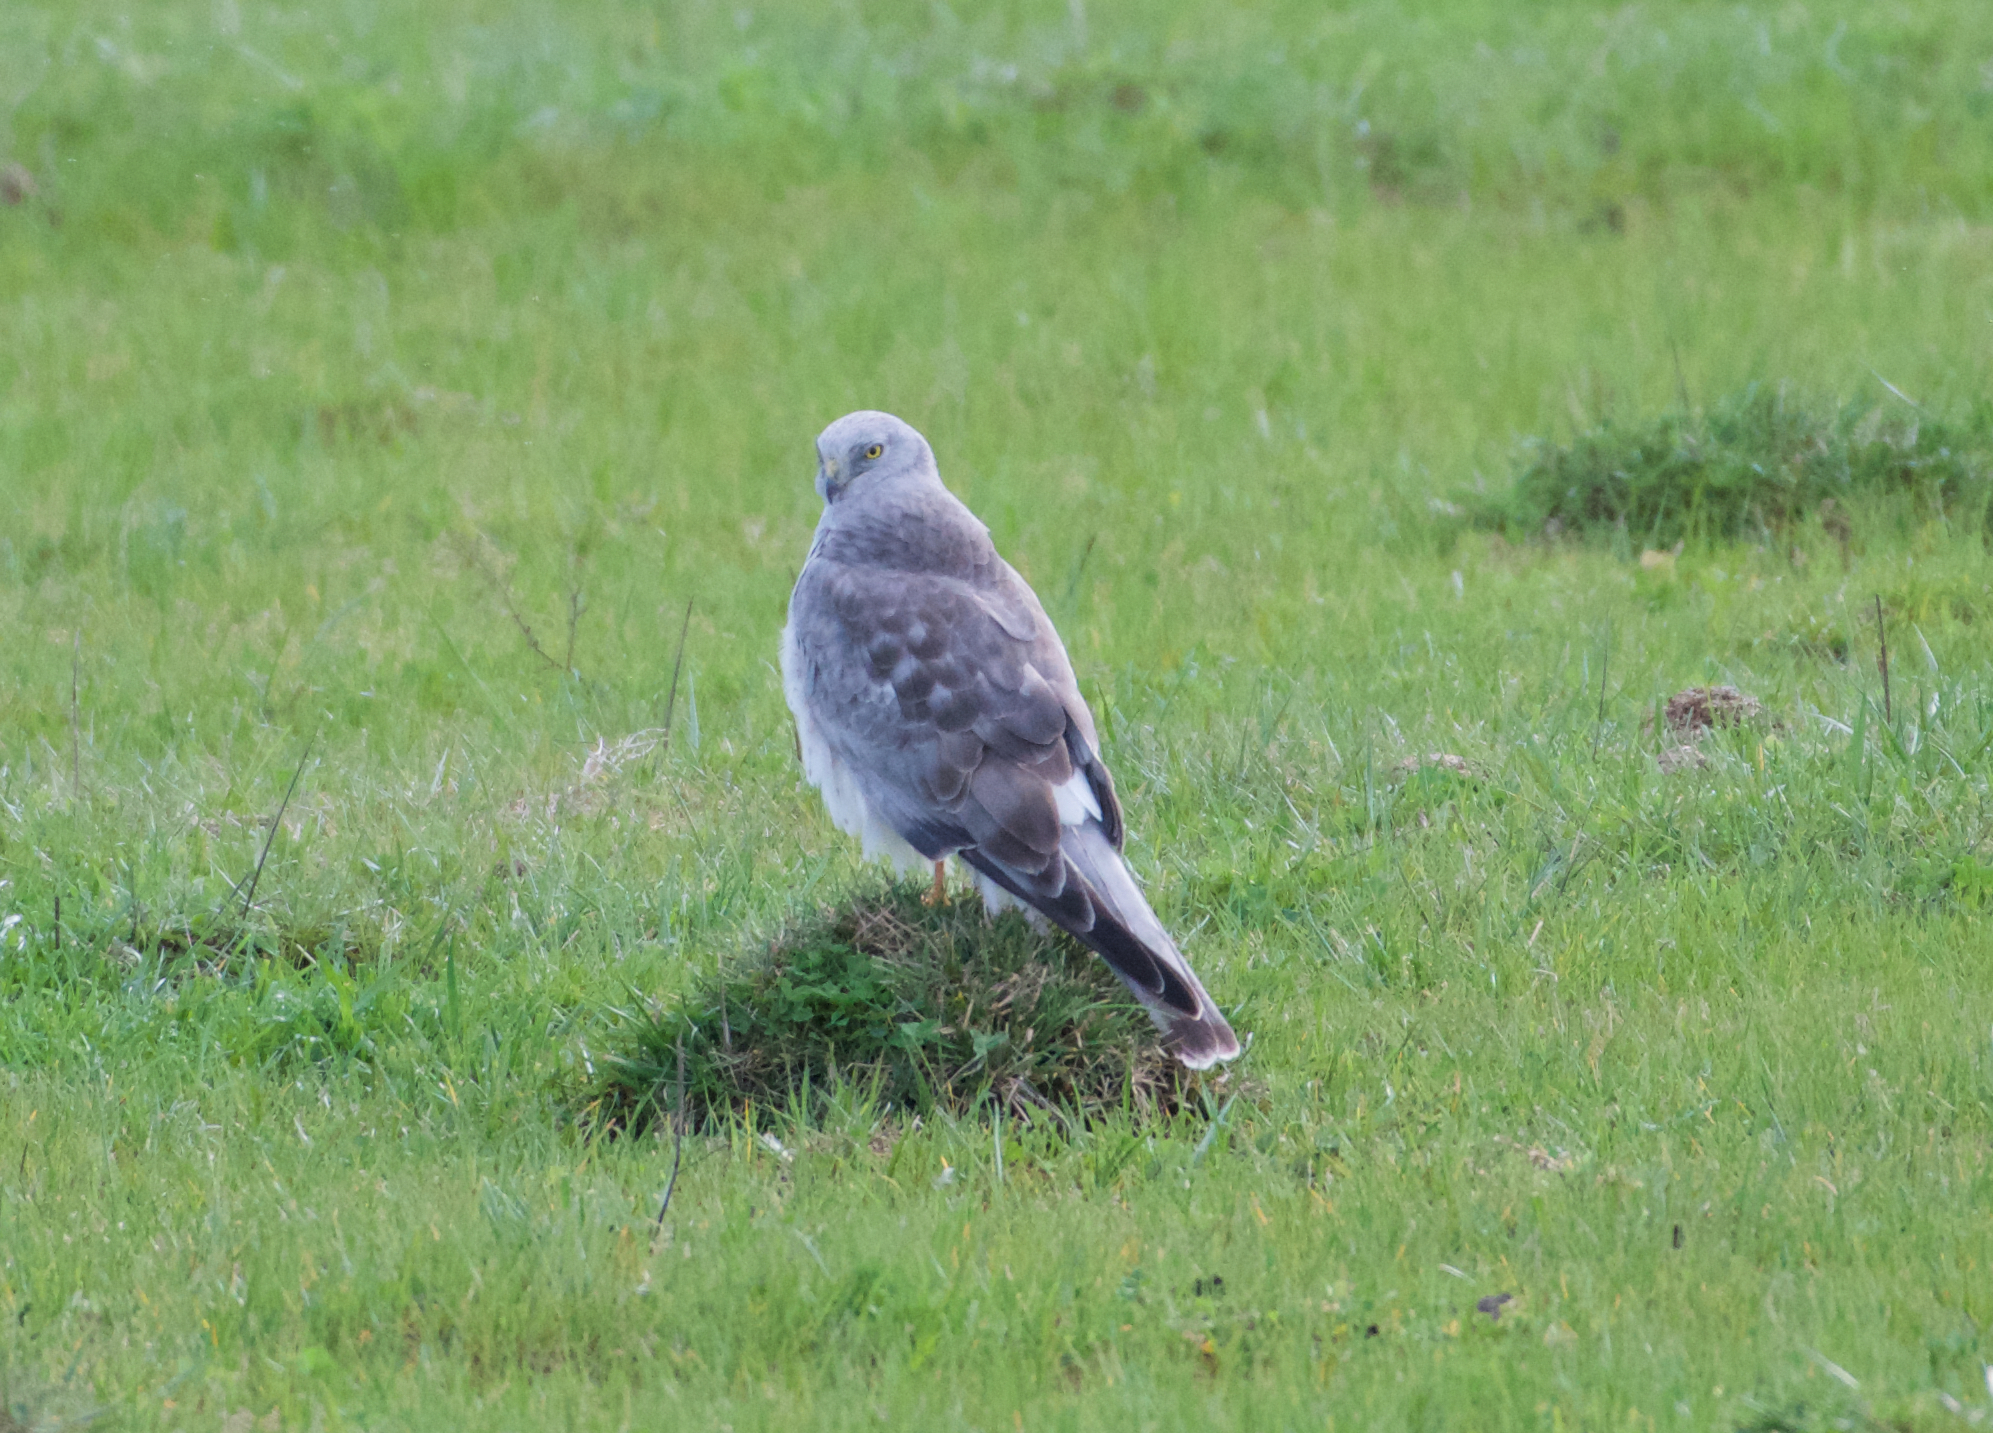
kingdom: Animalia
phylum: Chordata
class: Aves
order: Accipitriformes
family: Accipitridae
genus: Circus
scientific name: Circus cyaneus
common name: Hen harrier
